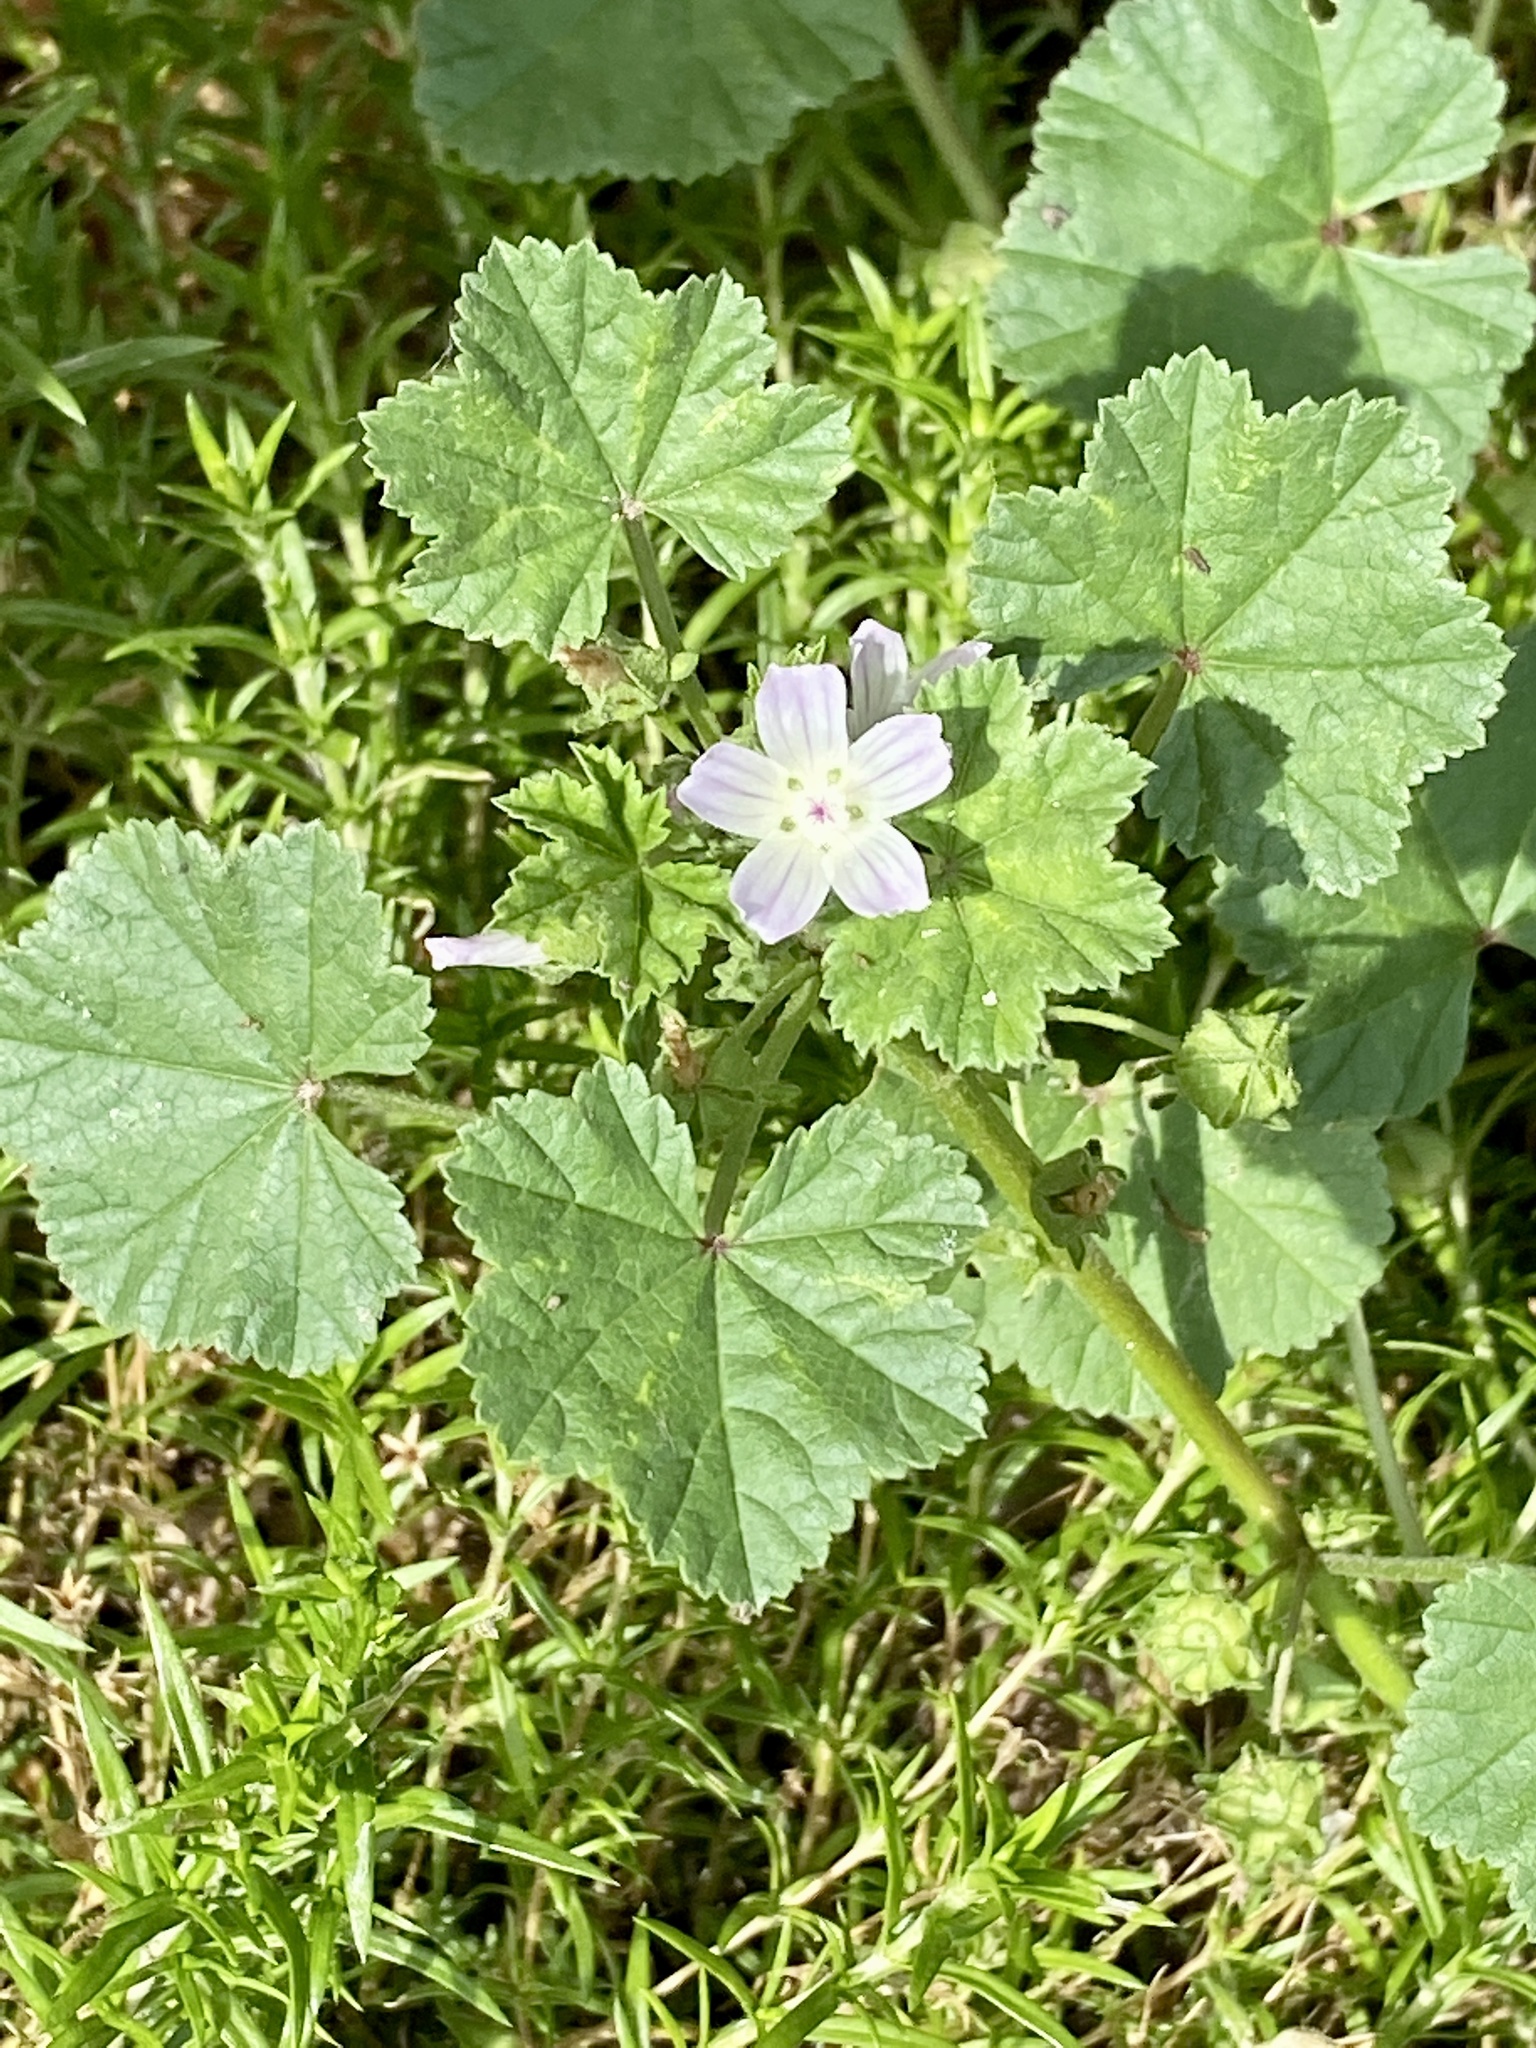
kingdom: Plantae
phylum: Tracheophyta
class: Magnoliopsida
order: Malvales
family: Malvaceae
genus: Malva
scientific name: Malva neglecta
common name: Common mallow
